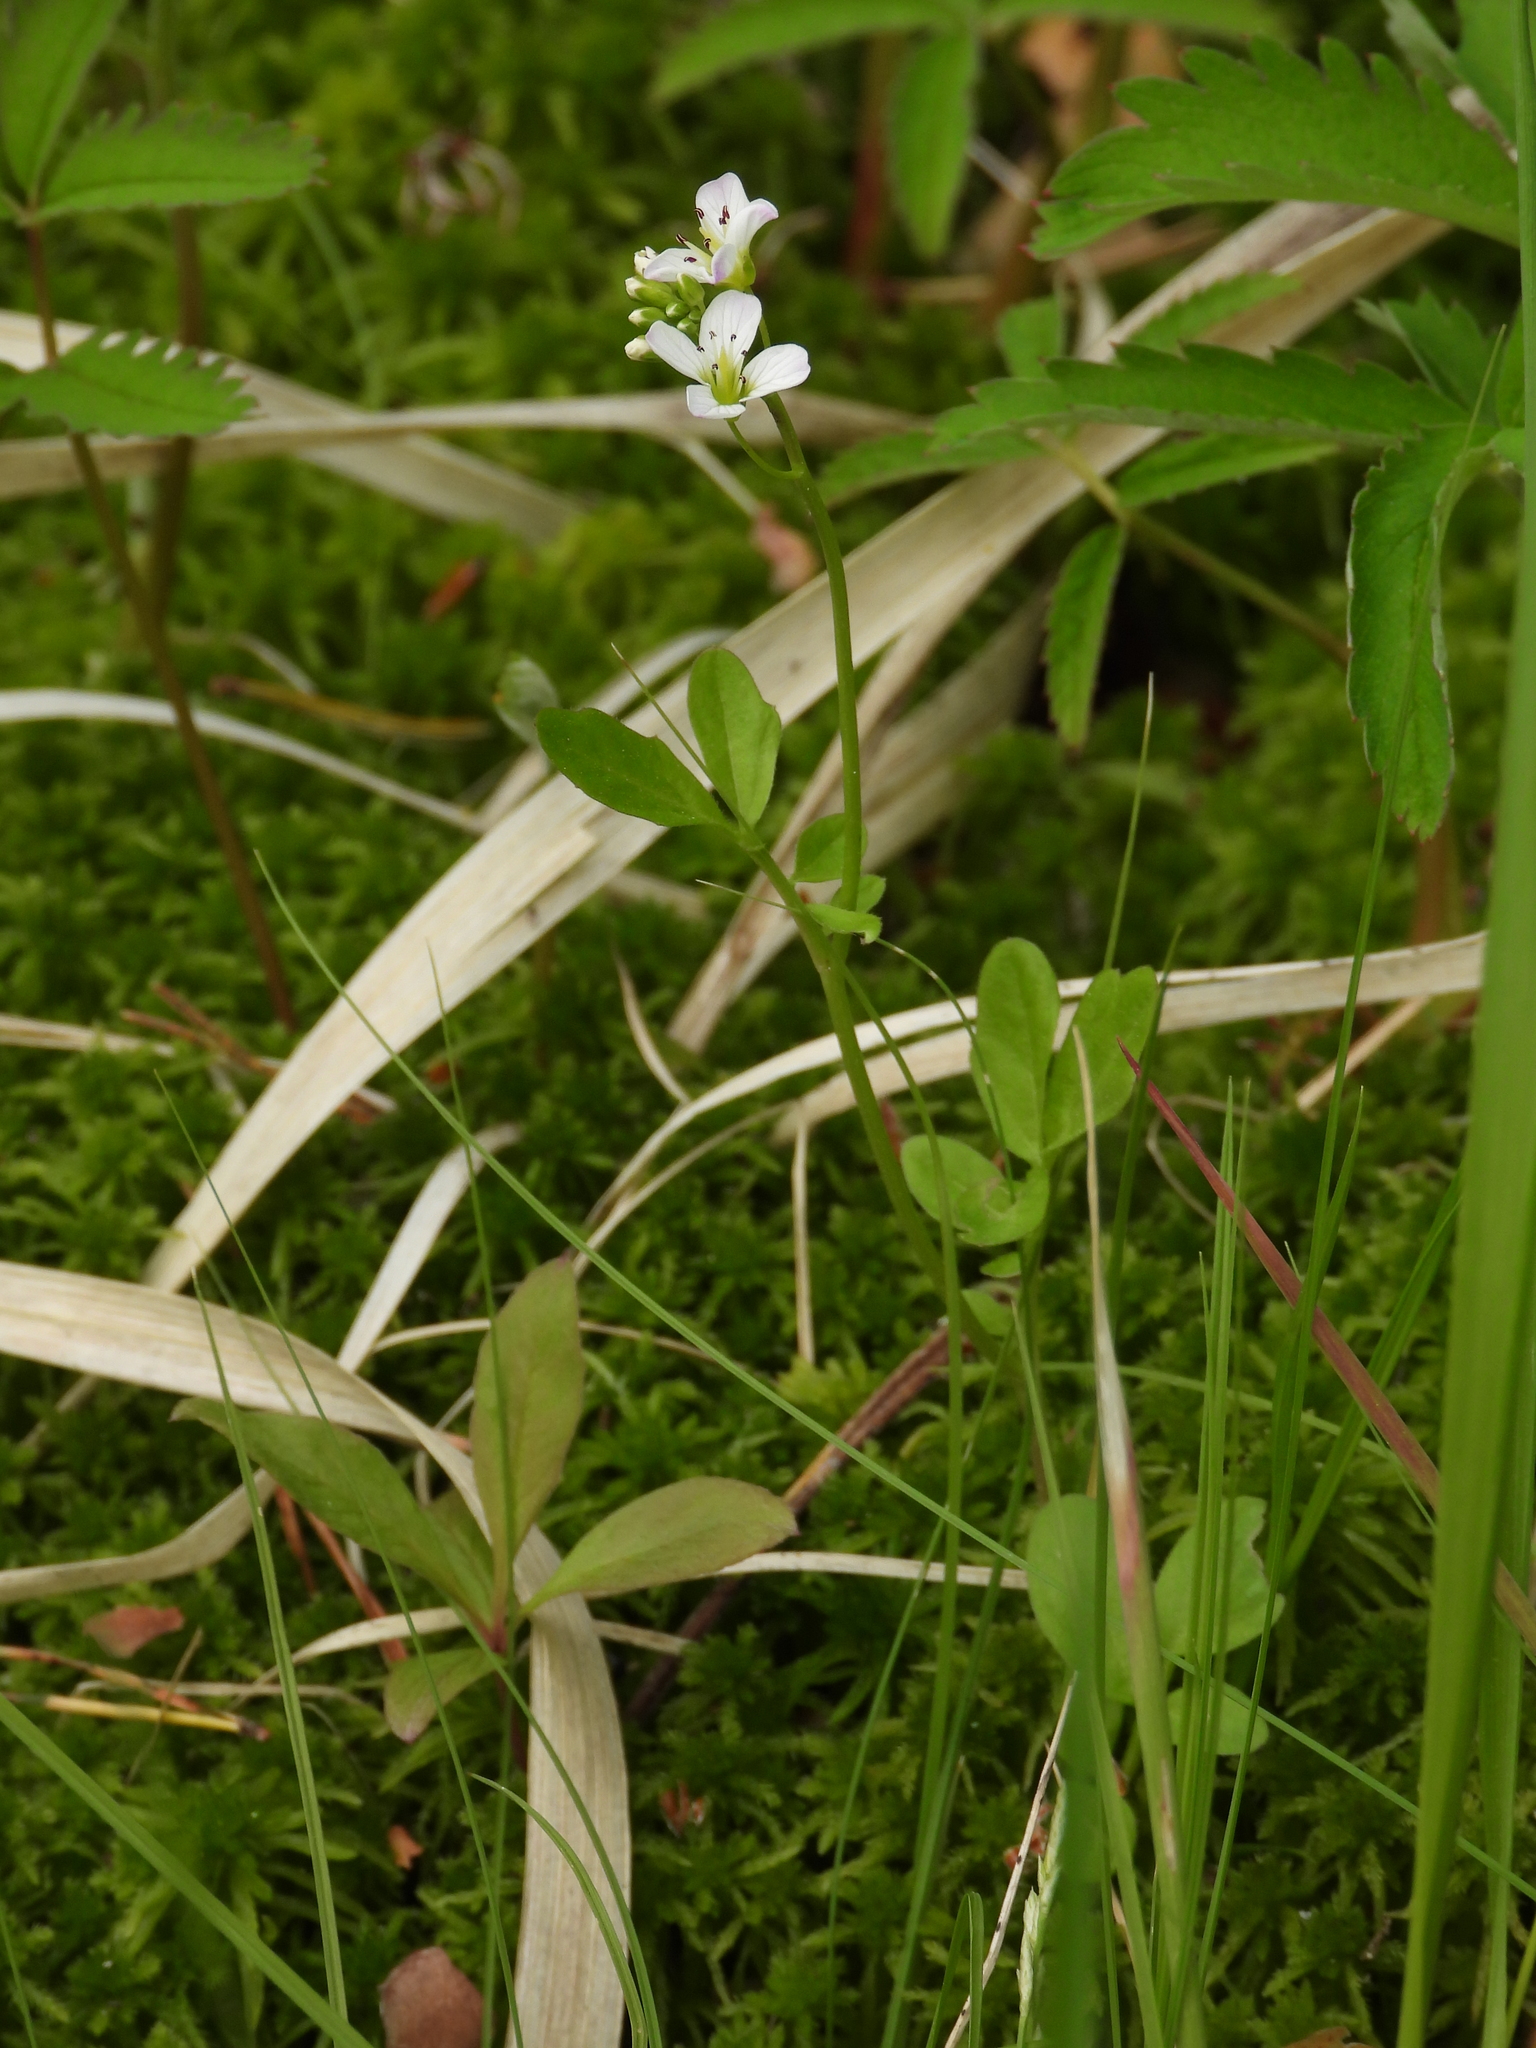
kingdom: Plantae
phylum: Tracheophyta
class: Magnoliopsida
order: Brassicales
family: Brassicaceae
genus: Cardamine
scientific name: Cardamine amara
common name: Large bitter-cress
